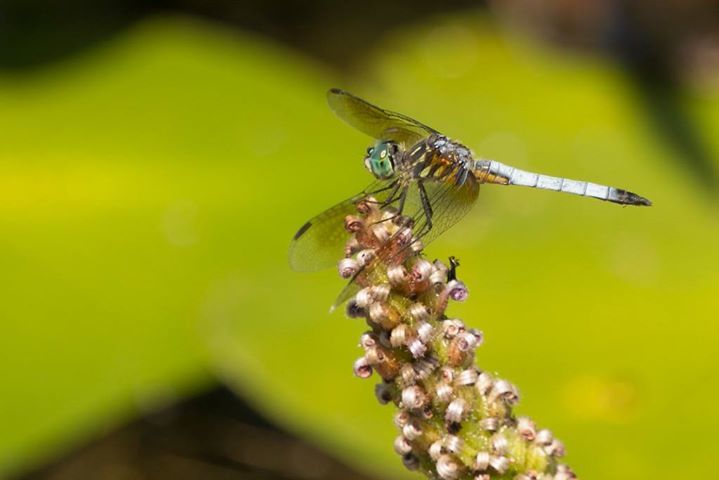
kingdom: Animalia
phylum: Arthropoda
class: Insecta
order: Odonata
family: Libellulidae
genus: Pachydiplax
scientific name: Pachydiplax longipennis
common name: Blue dasher
